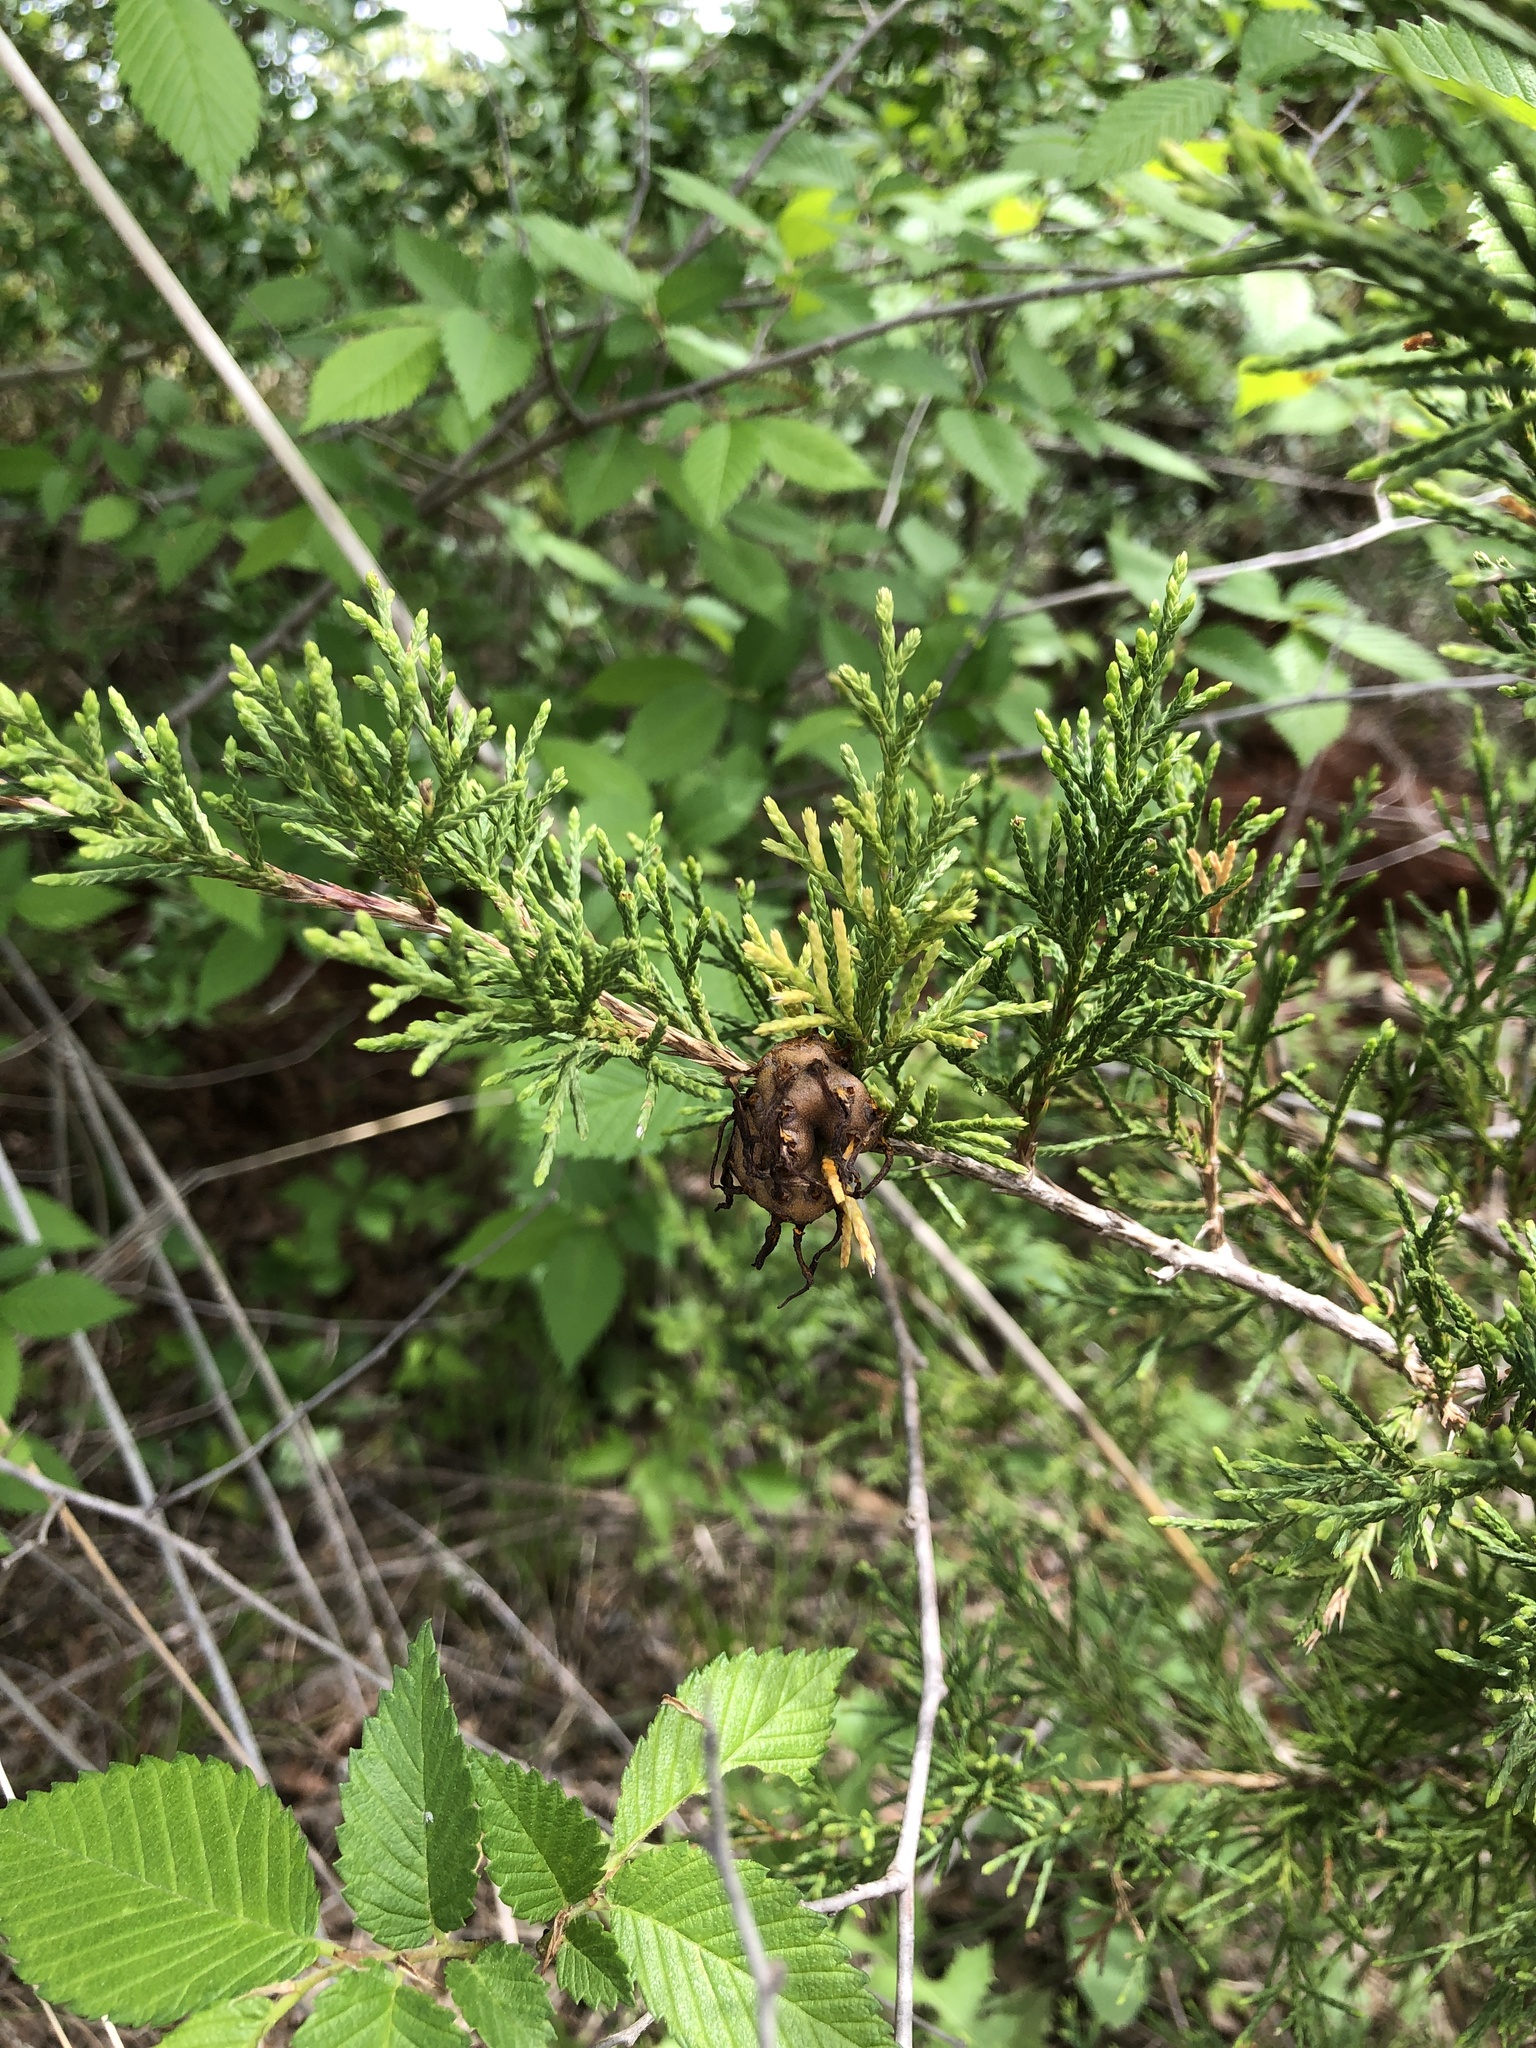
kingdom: Fungi
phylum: Basidiomycota
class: Pucciniomycetes
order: Pucciniales
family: Gymnosporangiaceae
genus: Gymnosporangium
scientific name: Gymnosporangium juniperi-virginianae
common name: Juniper-apple rust
